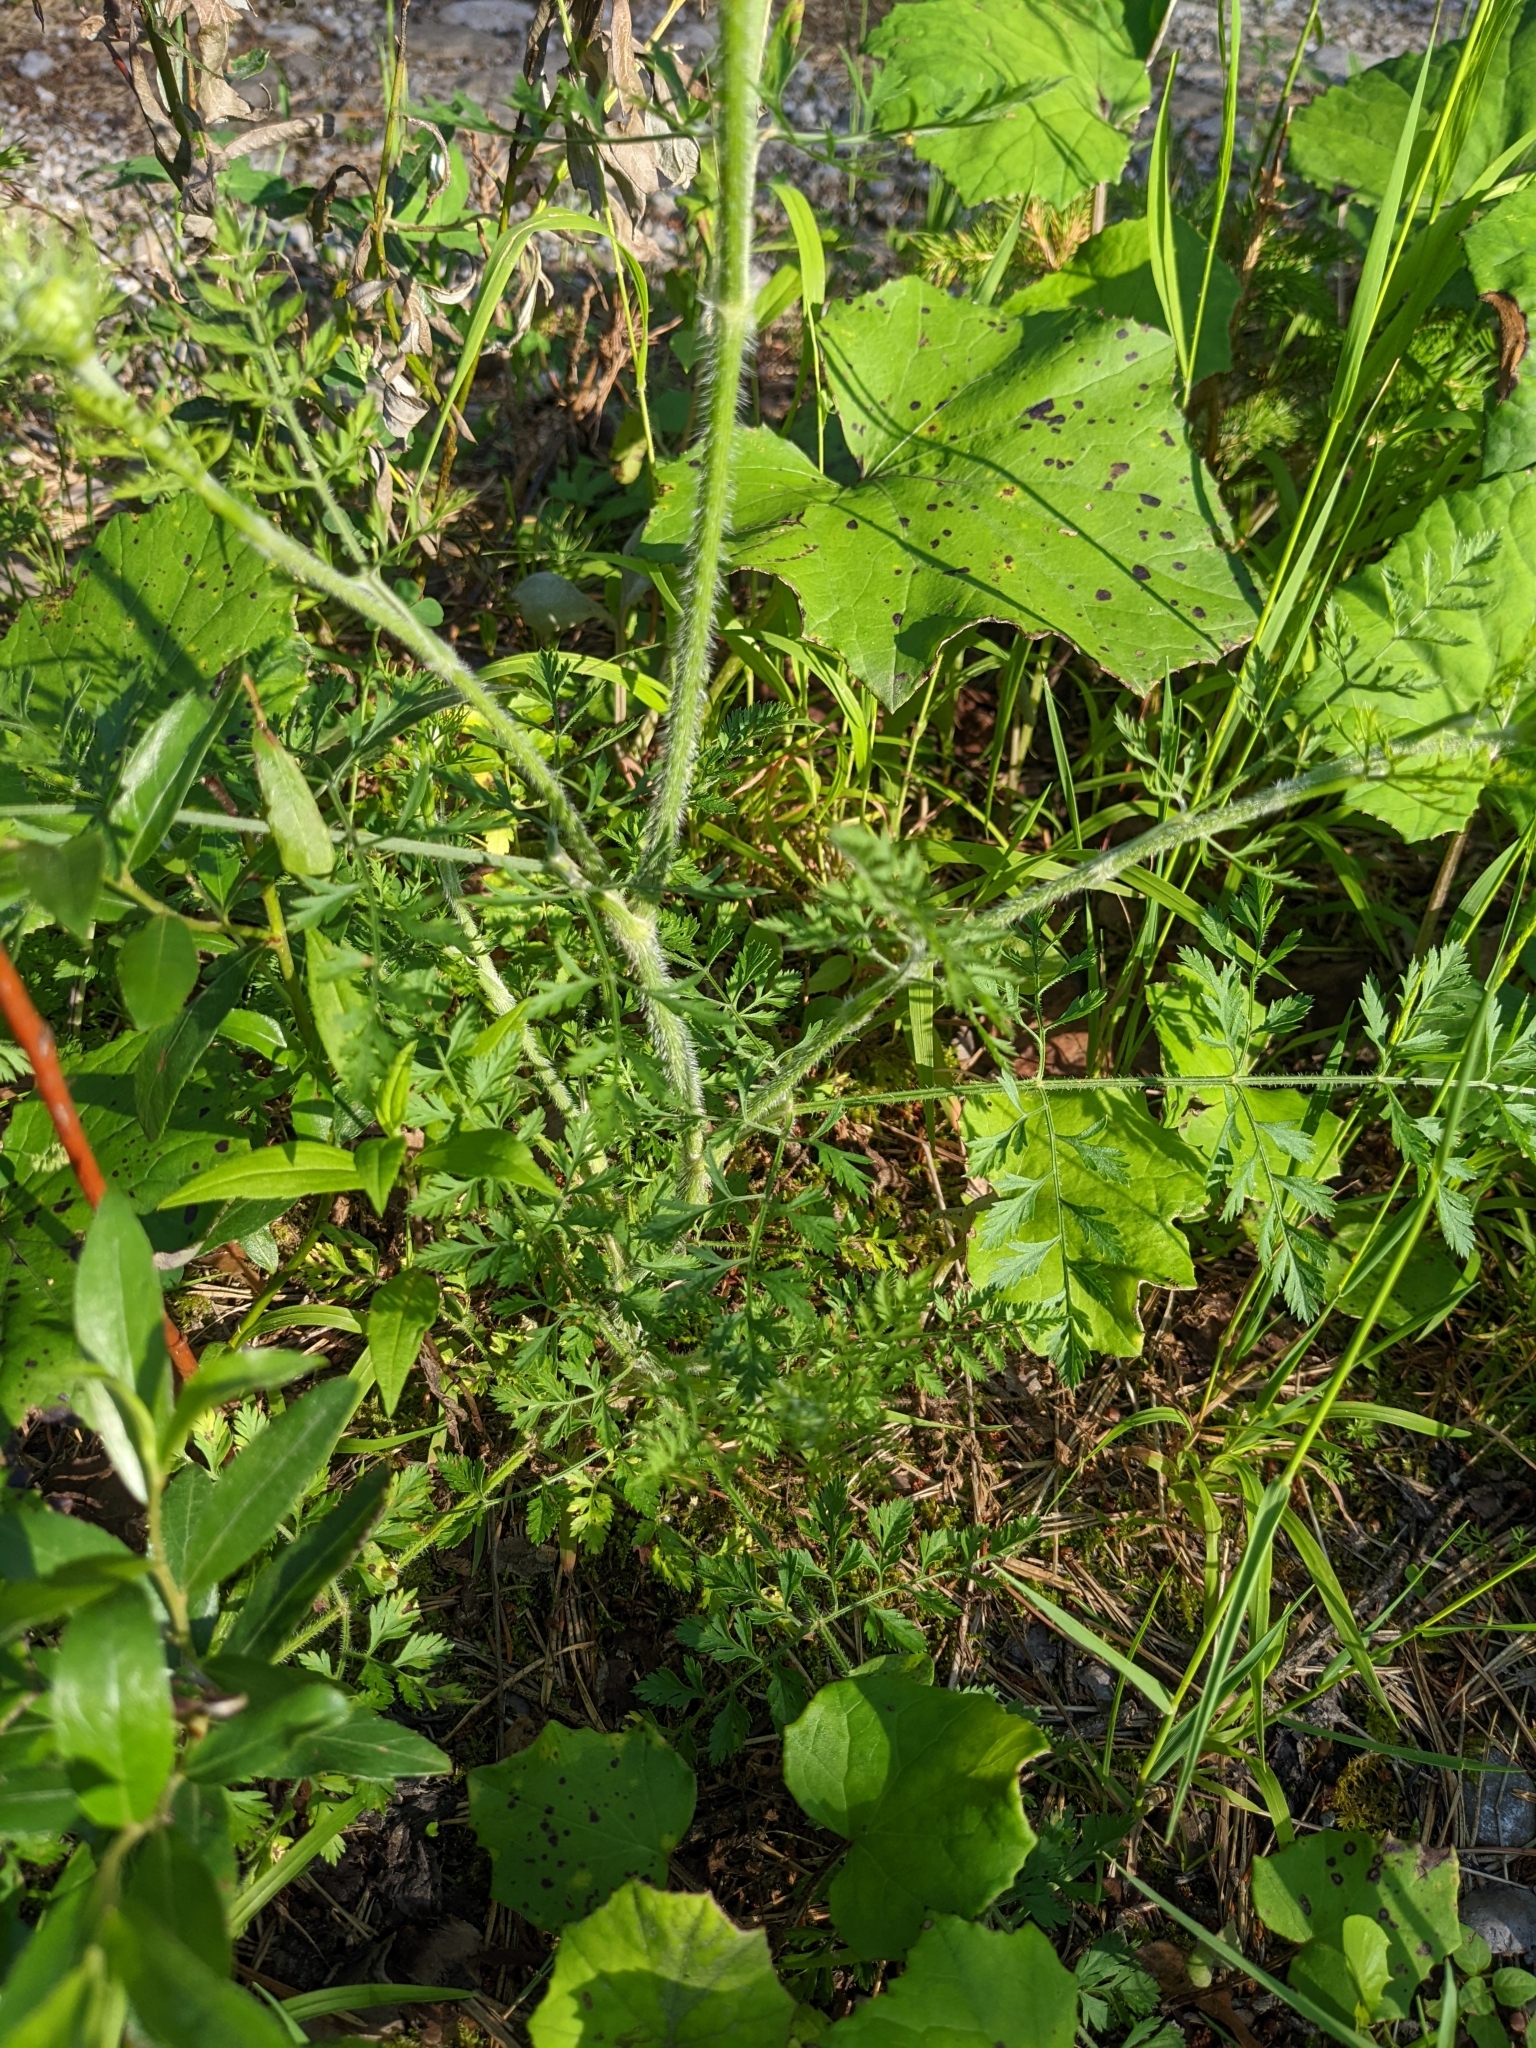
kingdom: Plantae
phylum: Tracheophyta
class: Magnoliopsida
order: Apiales
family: Apiaceae
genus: Daucus
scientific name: Daucus carota
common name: Wild carrot
